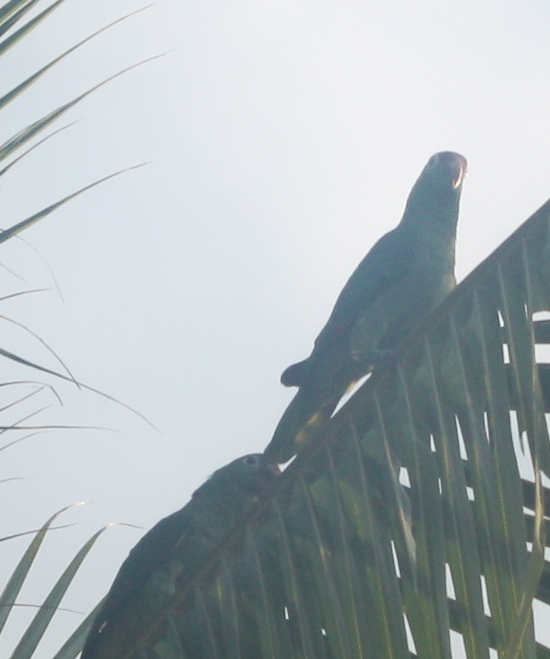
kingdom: Animalia
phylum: Chordata
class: Aves
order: Psittaciformes
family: Psittacidae
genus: Amazona
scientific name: Amazona autumnalis
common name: Red-lored amazon
